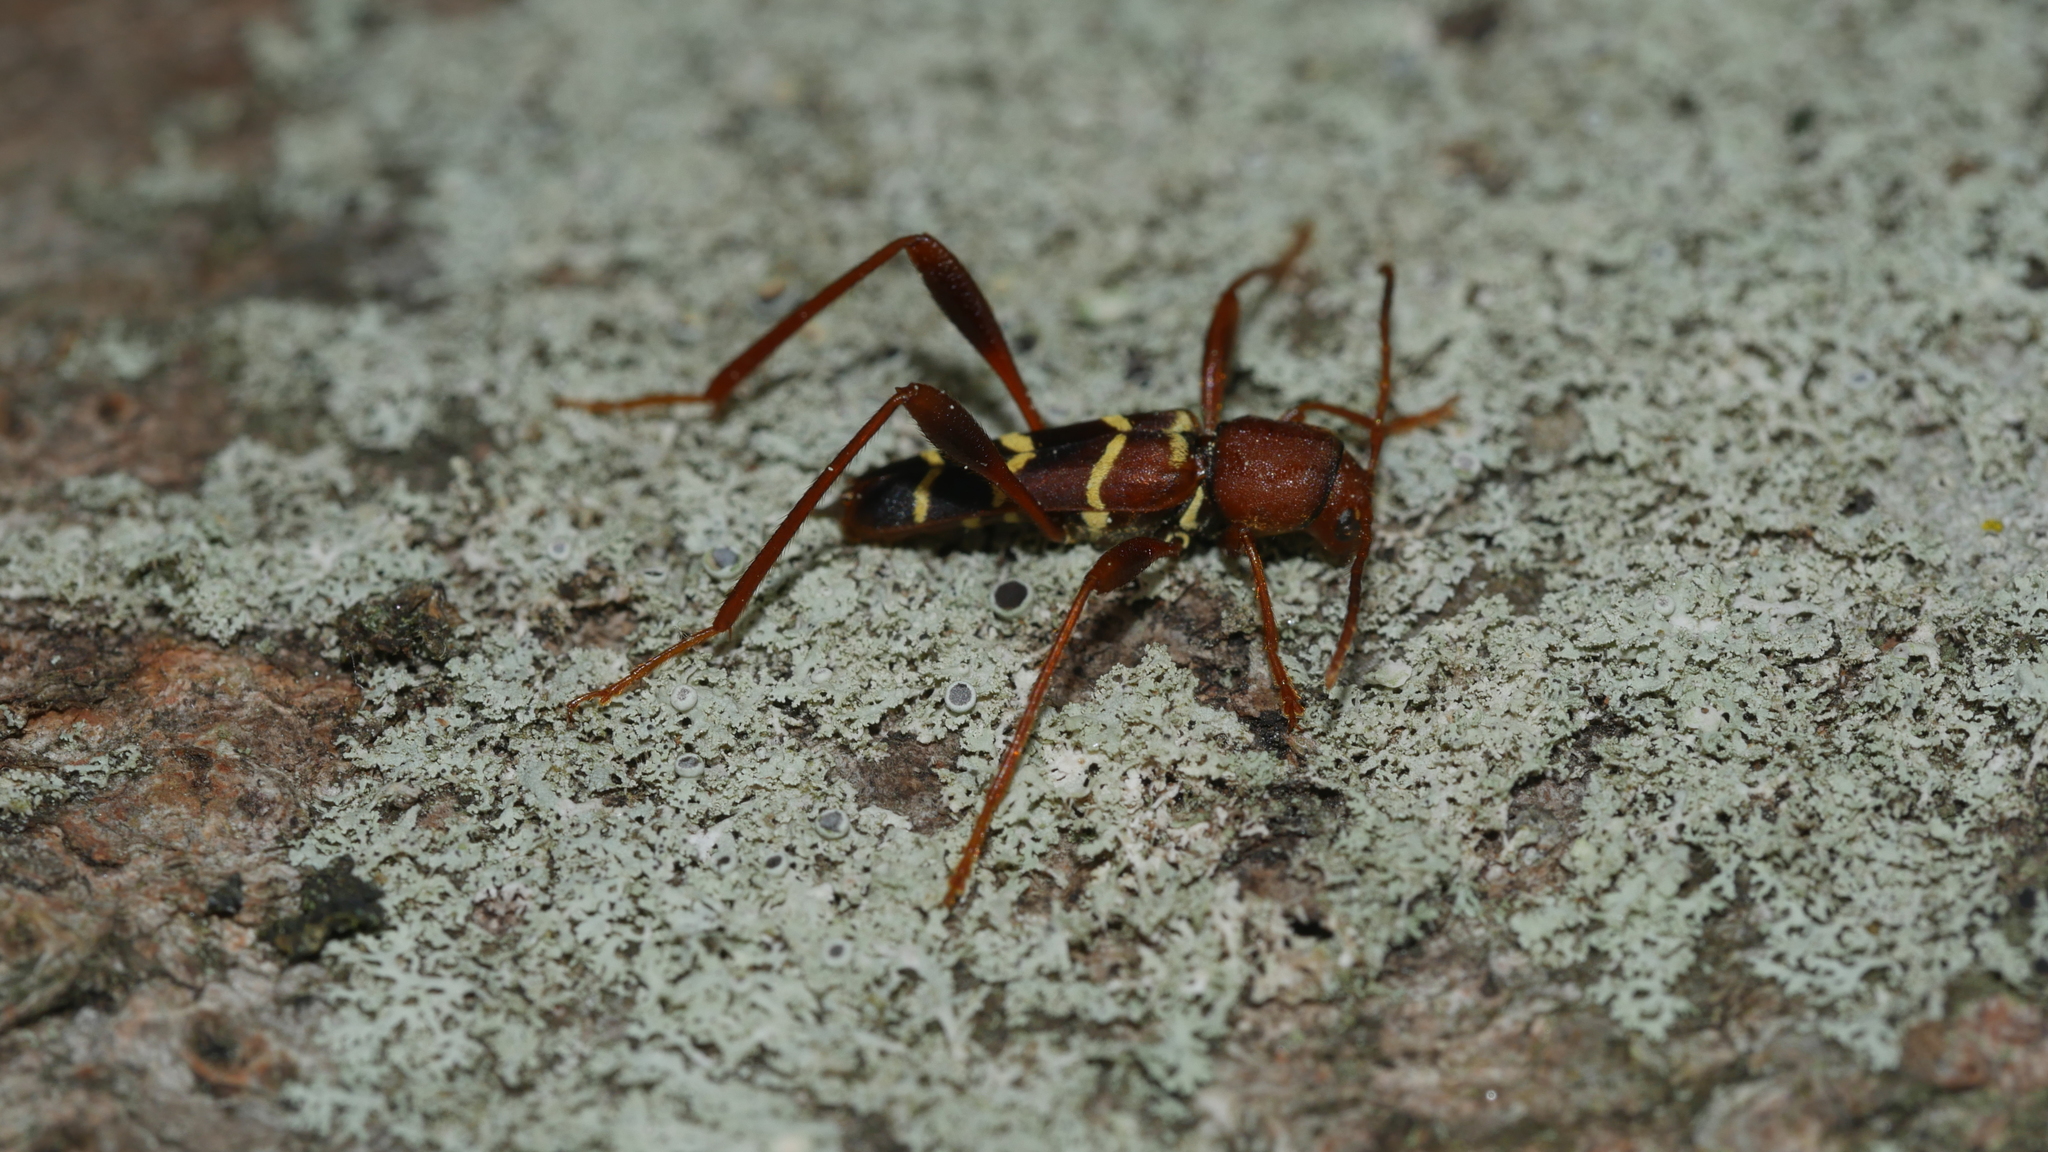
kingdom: Animalia
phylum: Arthropoda
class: Insecta
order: Coleoptera
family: Cerambycidae
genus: Neoclytus
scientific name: Neoclytus acuminatus
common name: Read-headed ash borer
